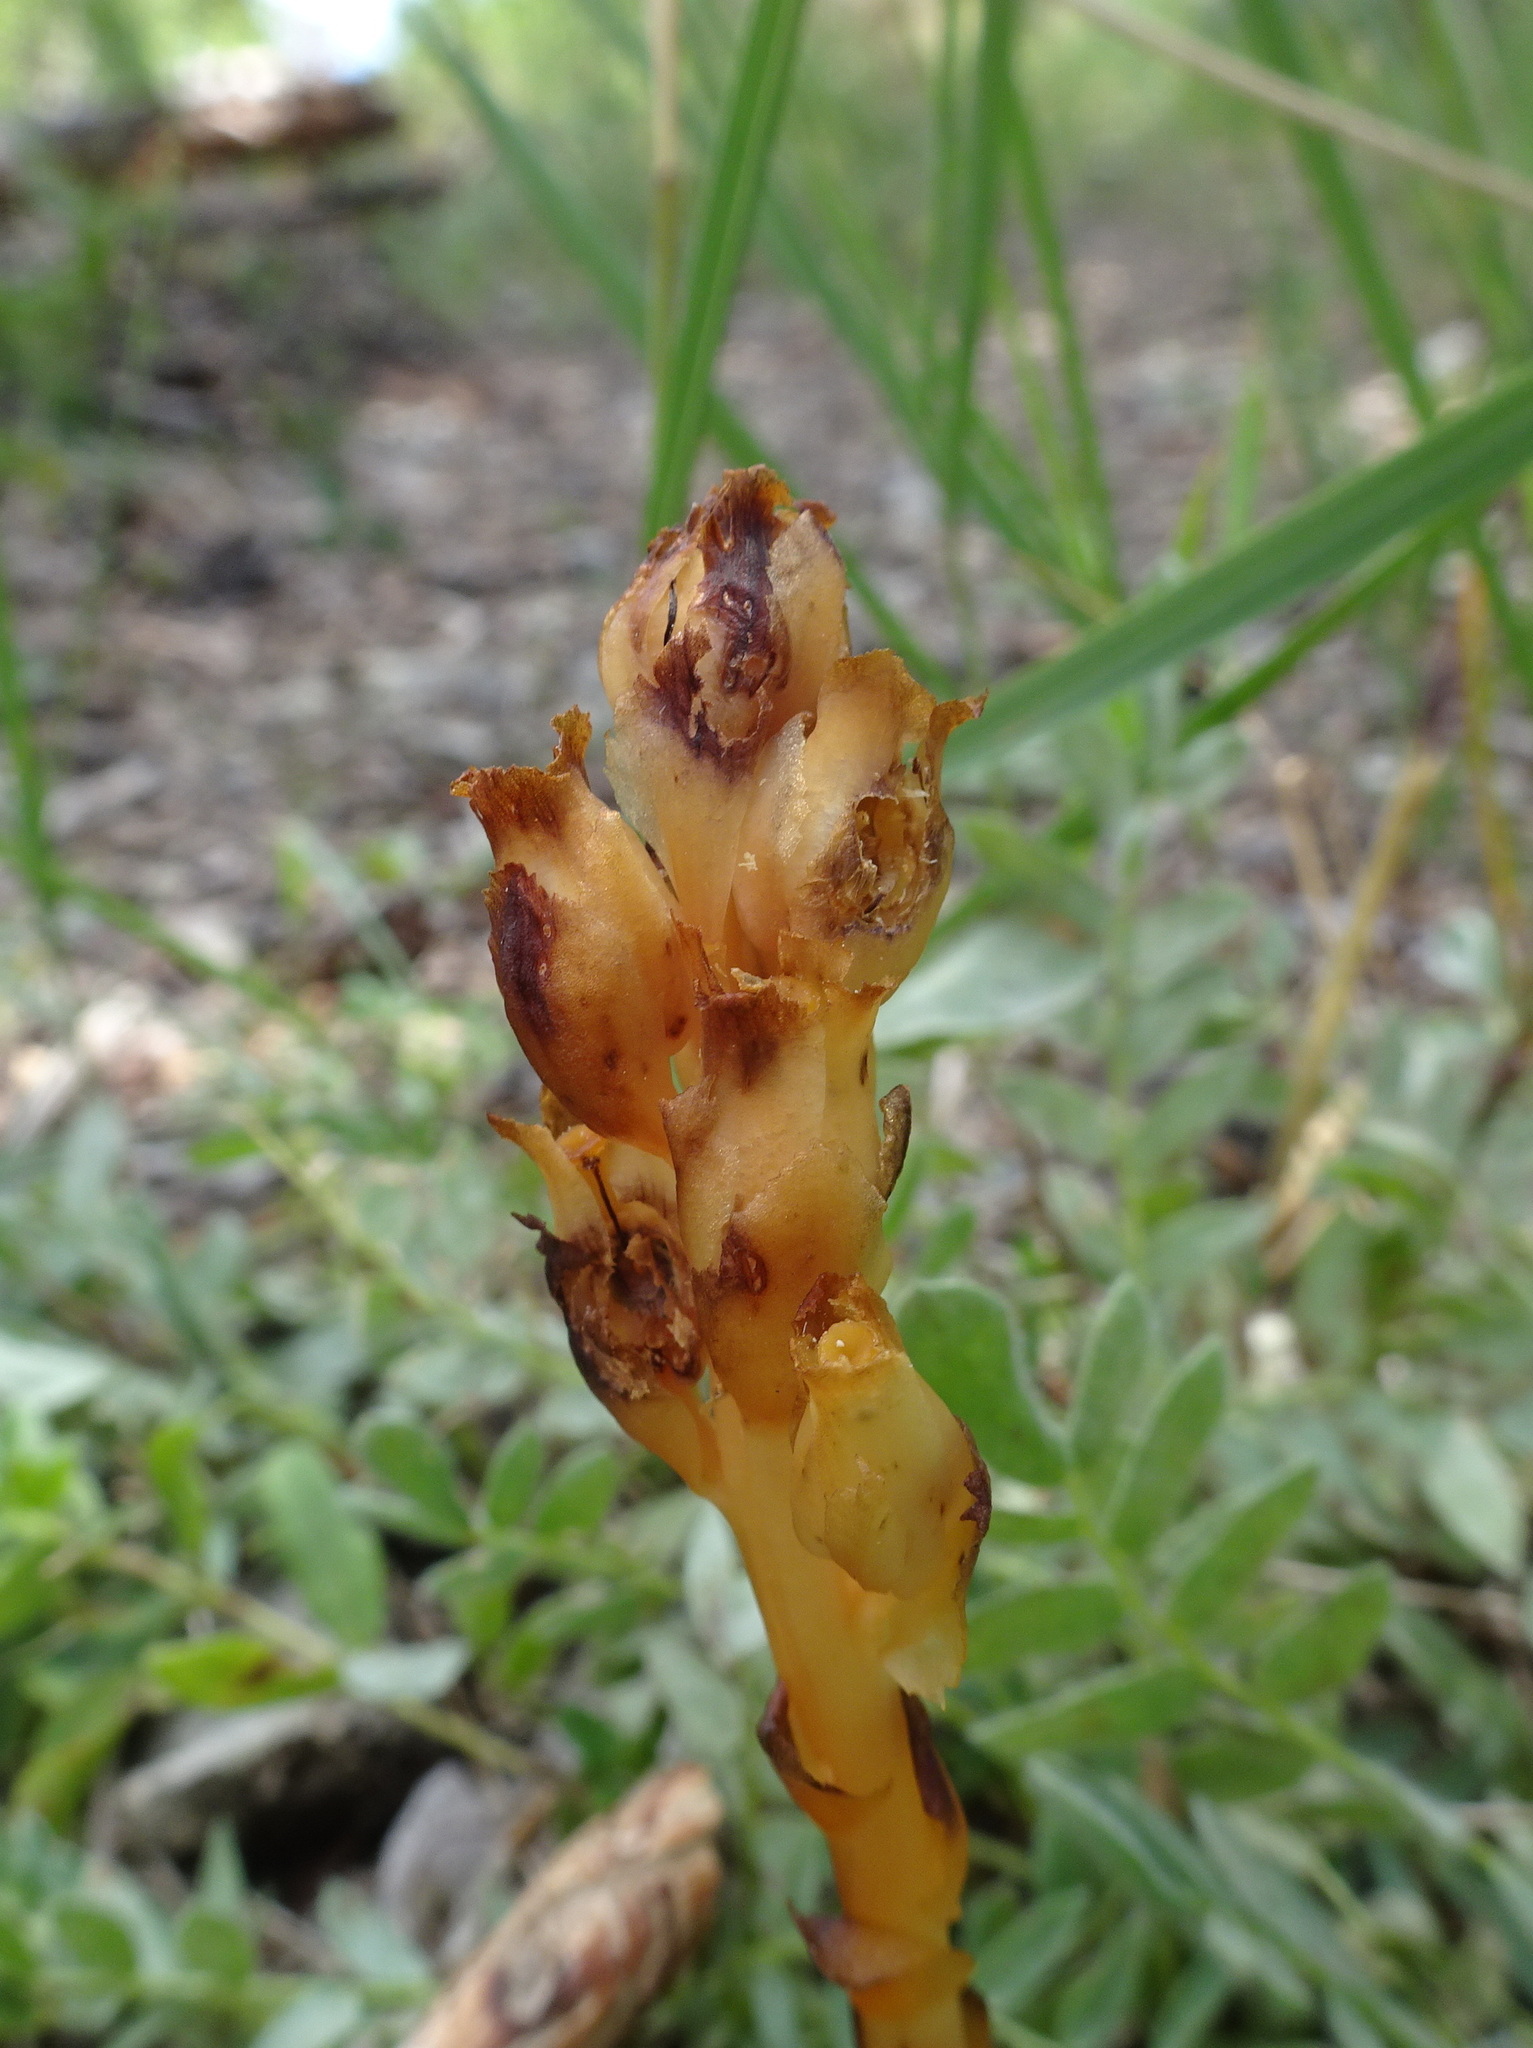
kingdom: Plantae
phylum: Tracheophyta
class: Magnoliopsida
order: Ericales
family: Ericaceae
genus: Hypopitys
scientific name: Hypopitys monotropa
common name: Yellow bird's-nest
